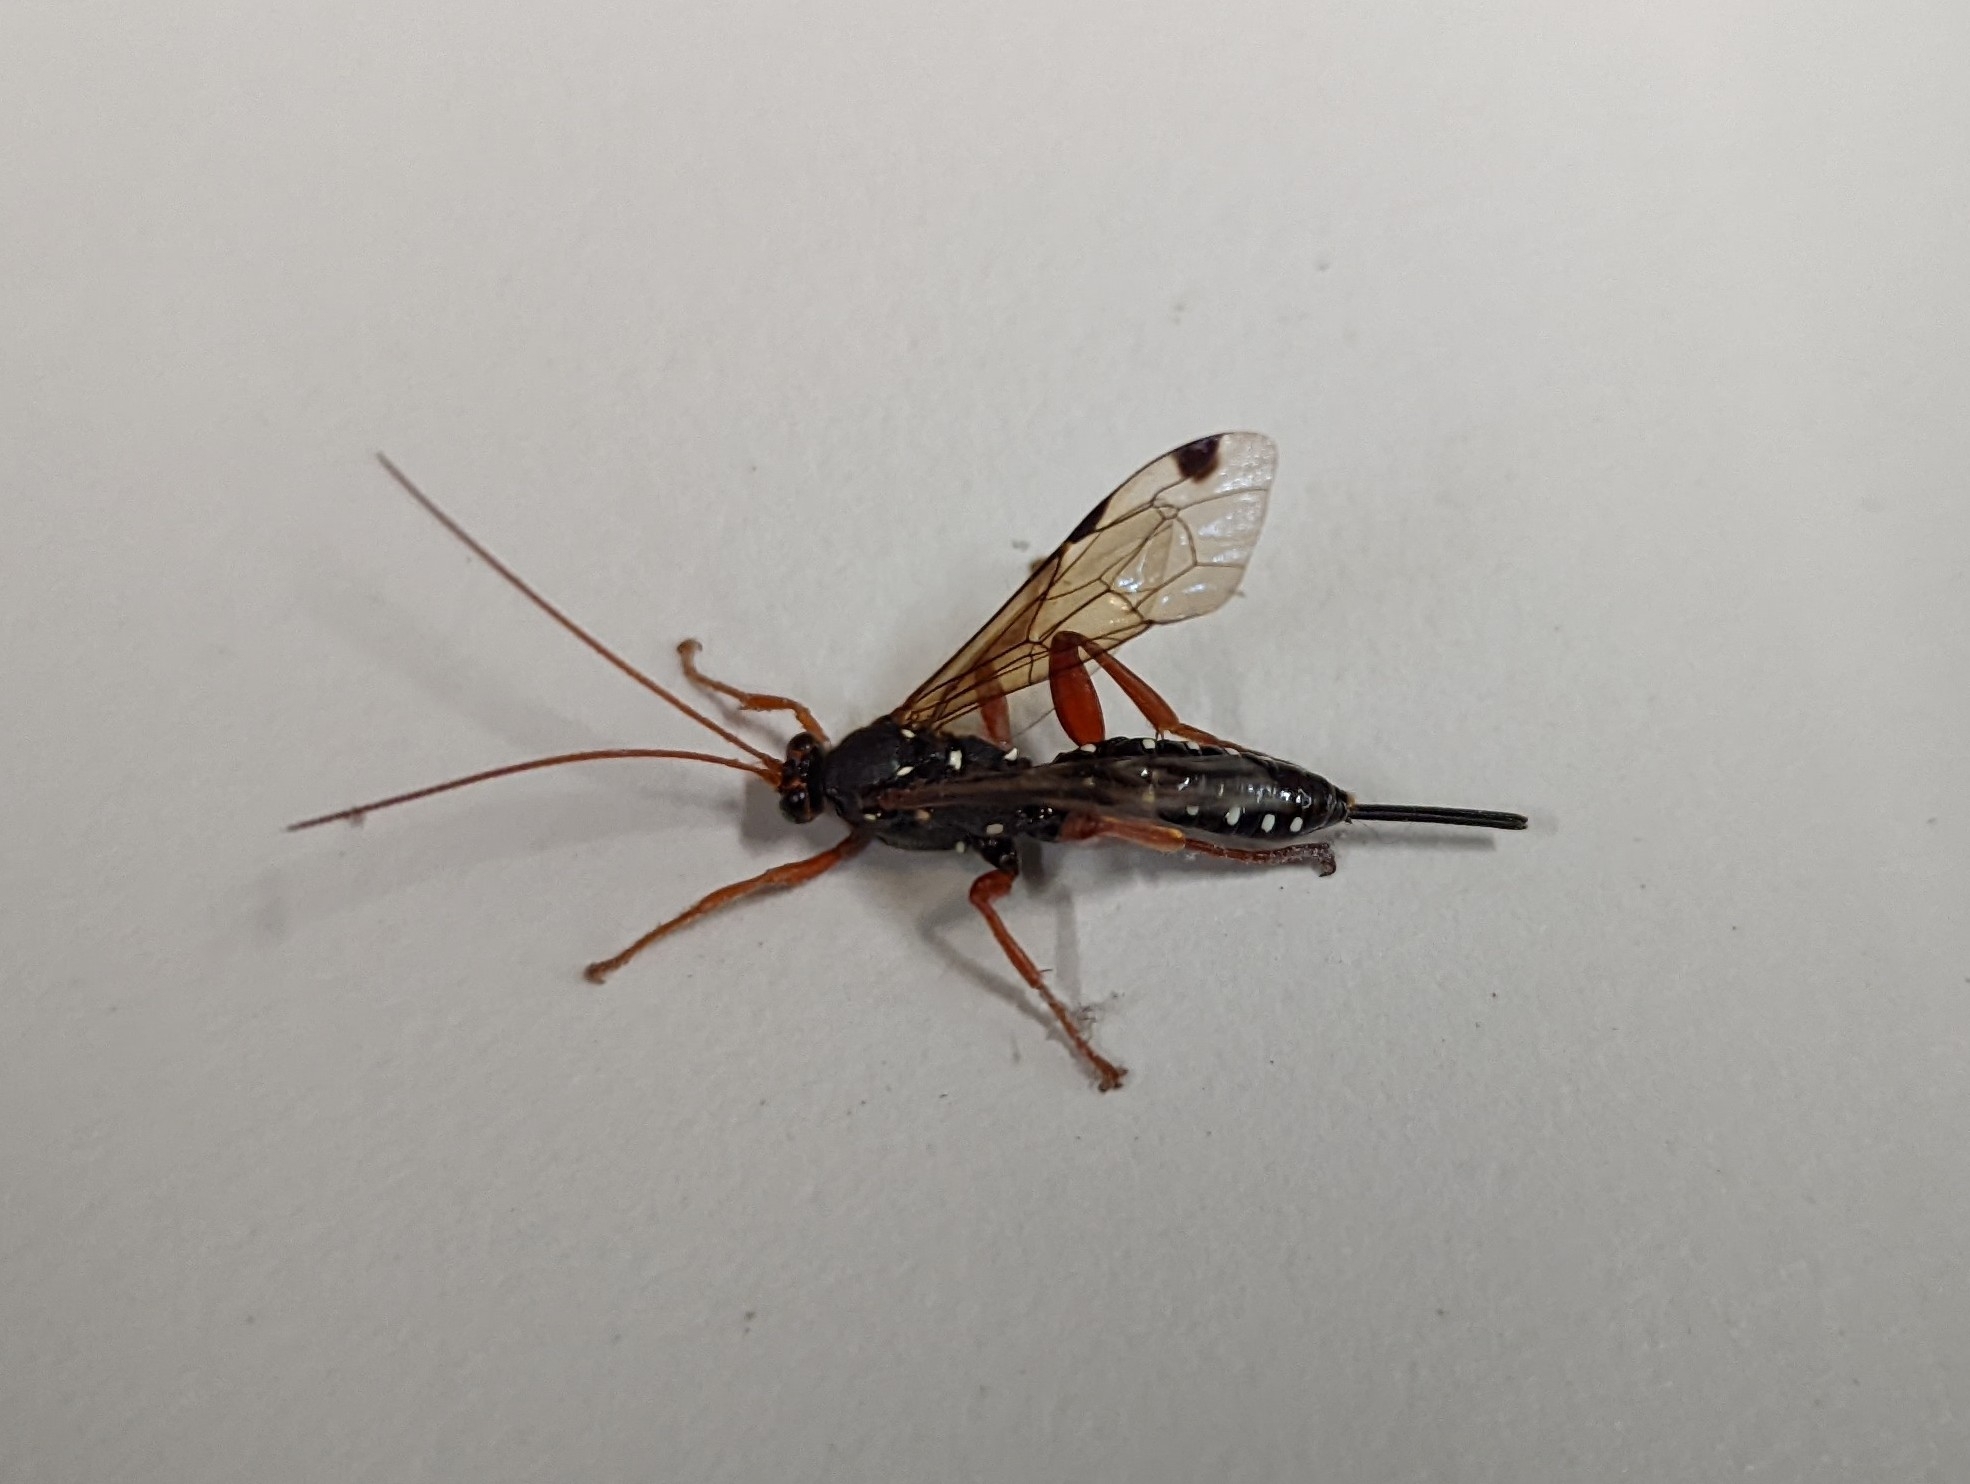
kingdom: Animalia
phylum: Arthropoda
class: Insecta
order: Hymenoptera
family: Ichneumonidae
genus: Echthromorpha
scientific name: Echthromorpha intricatoria
